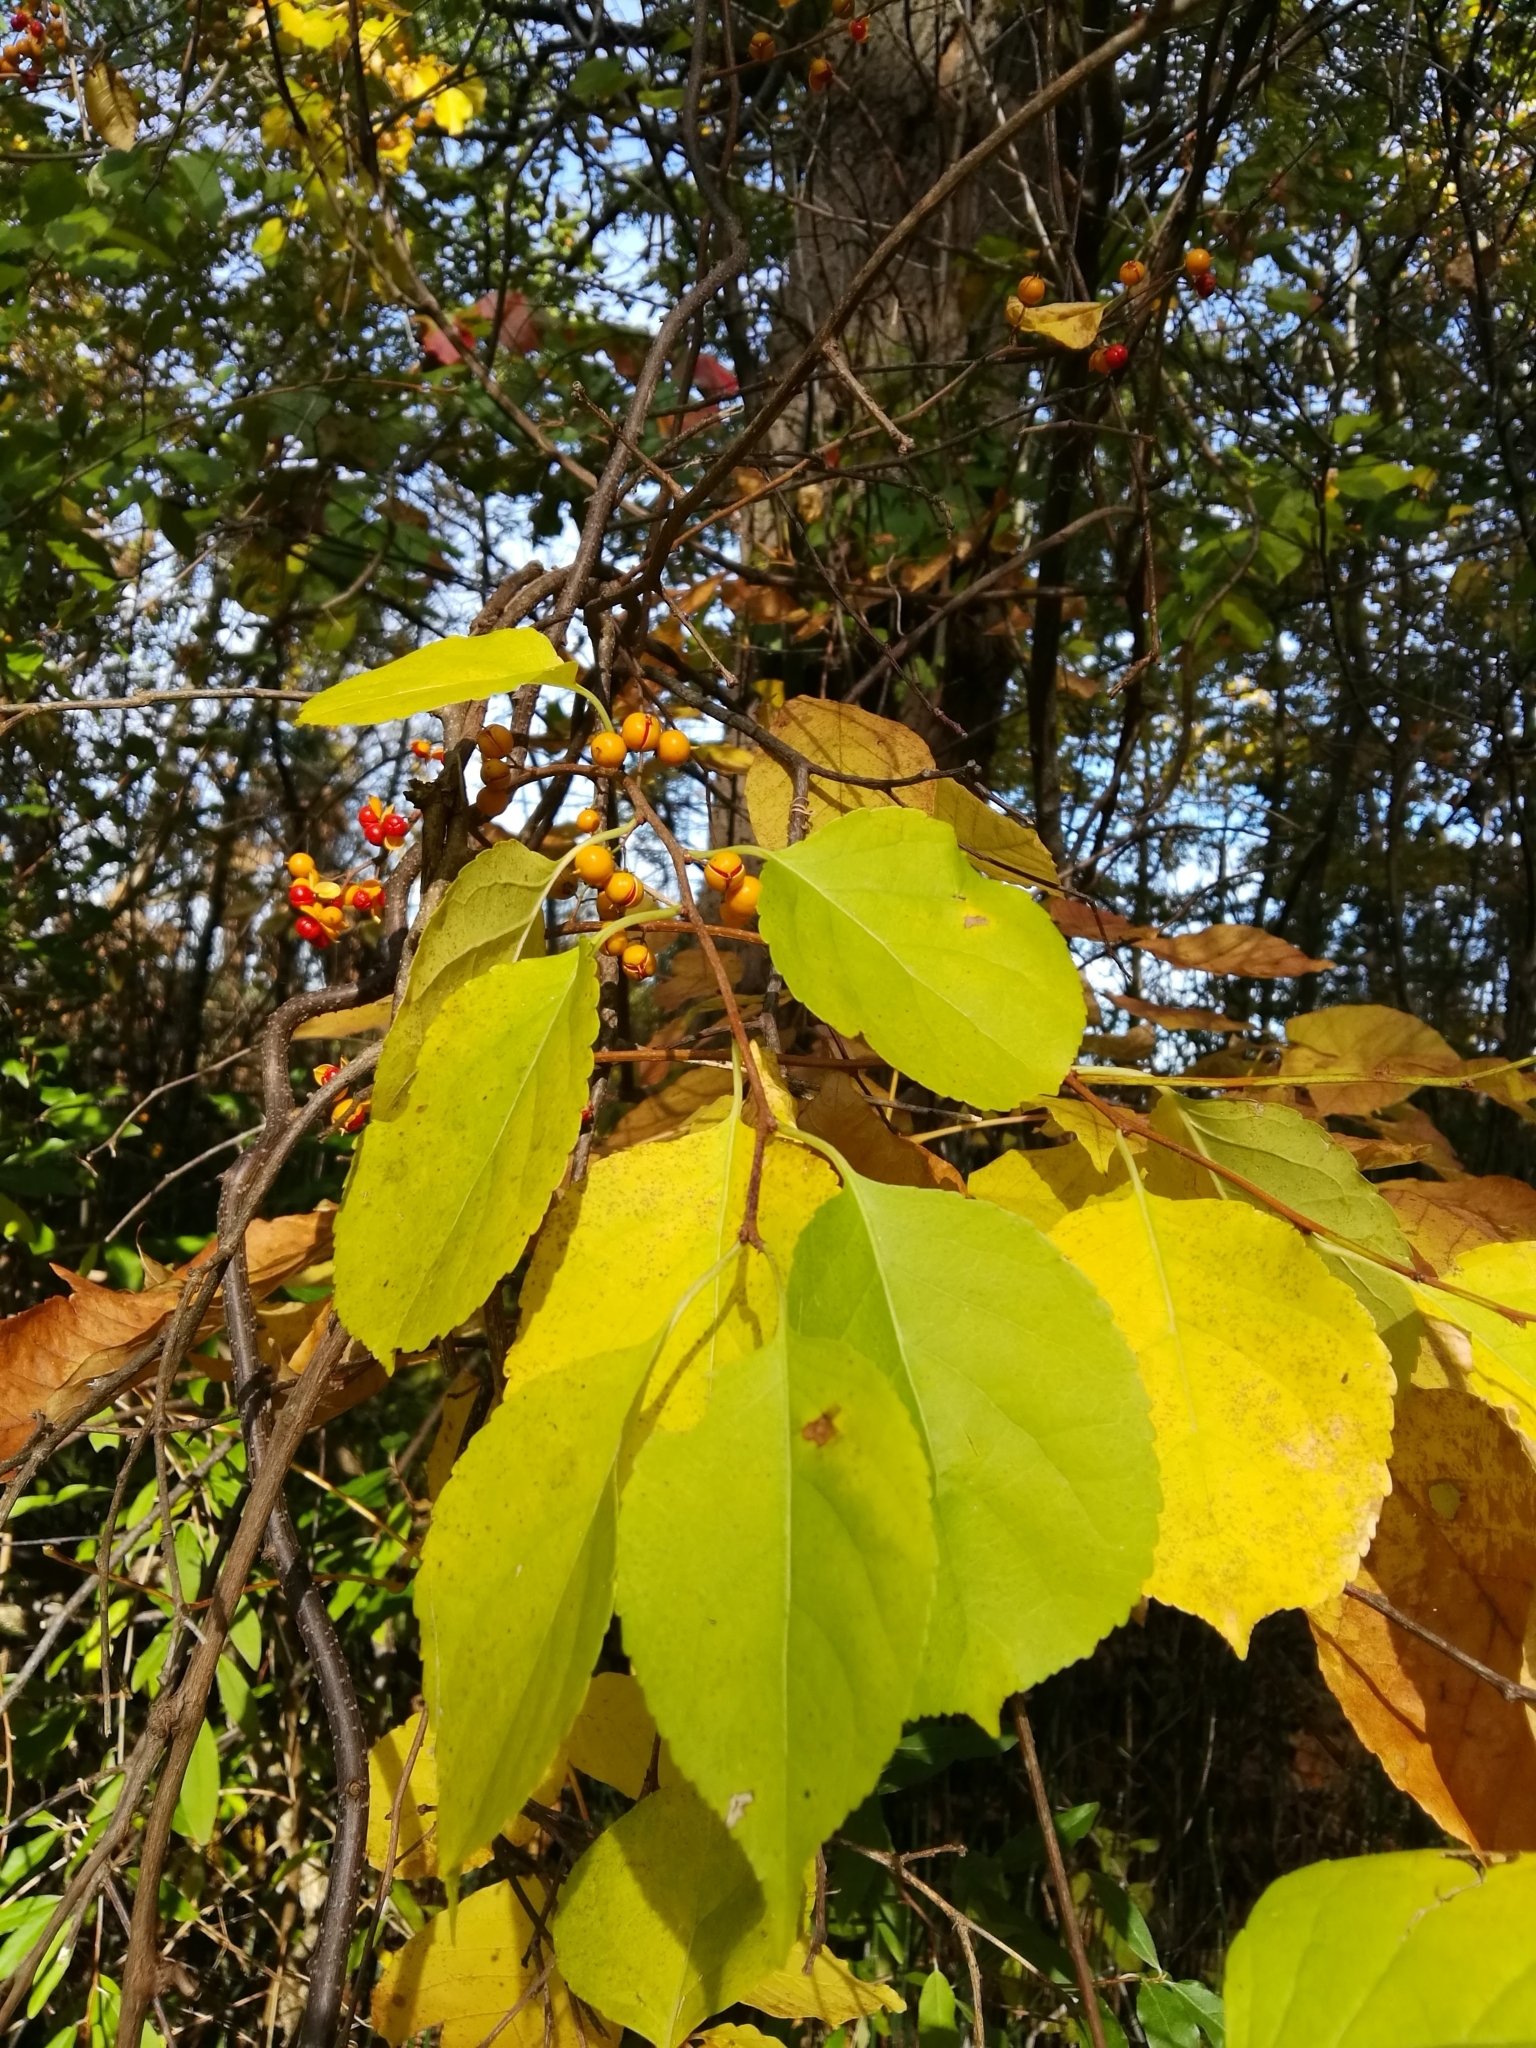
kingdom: Plantae
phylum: Tracheophyta
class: Magnoliopsida
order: Celastrales
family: Celastraceae
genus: Celastrus
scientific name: Celastrus orbiculatus
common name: Oriental bittersweet
